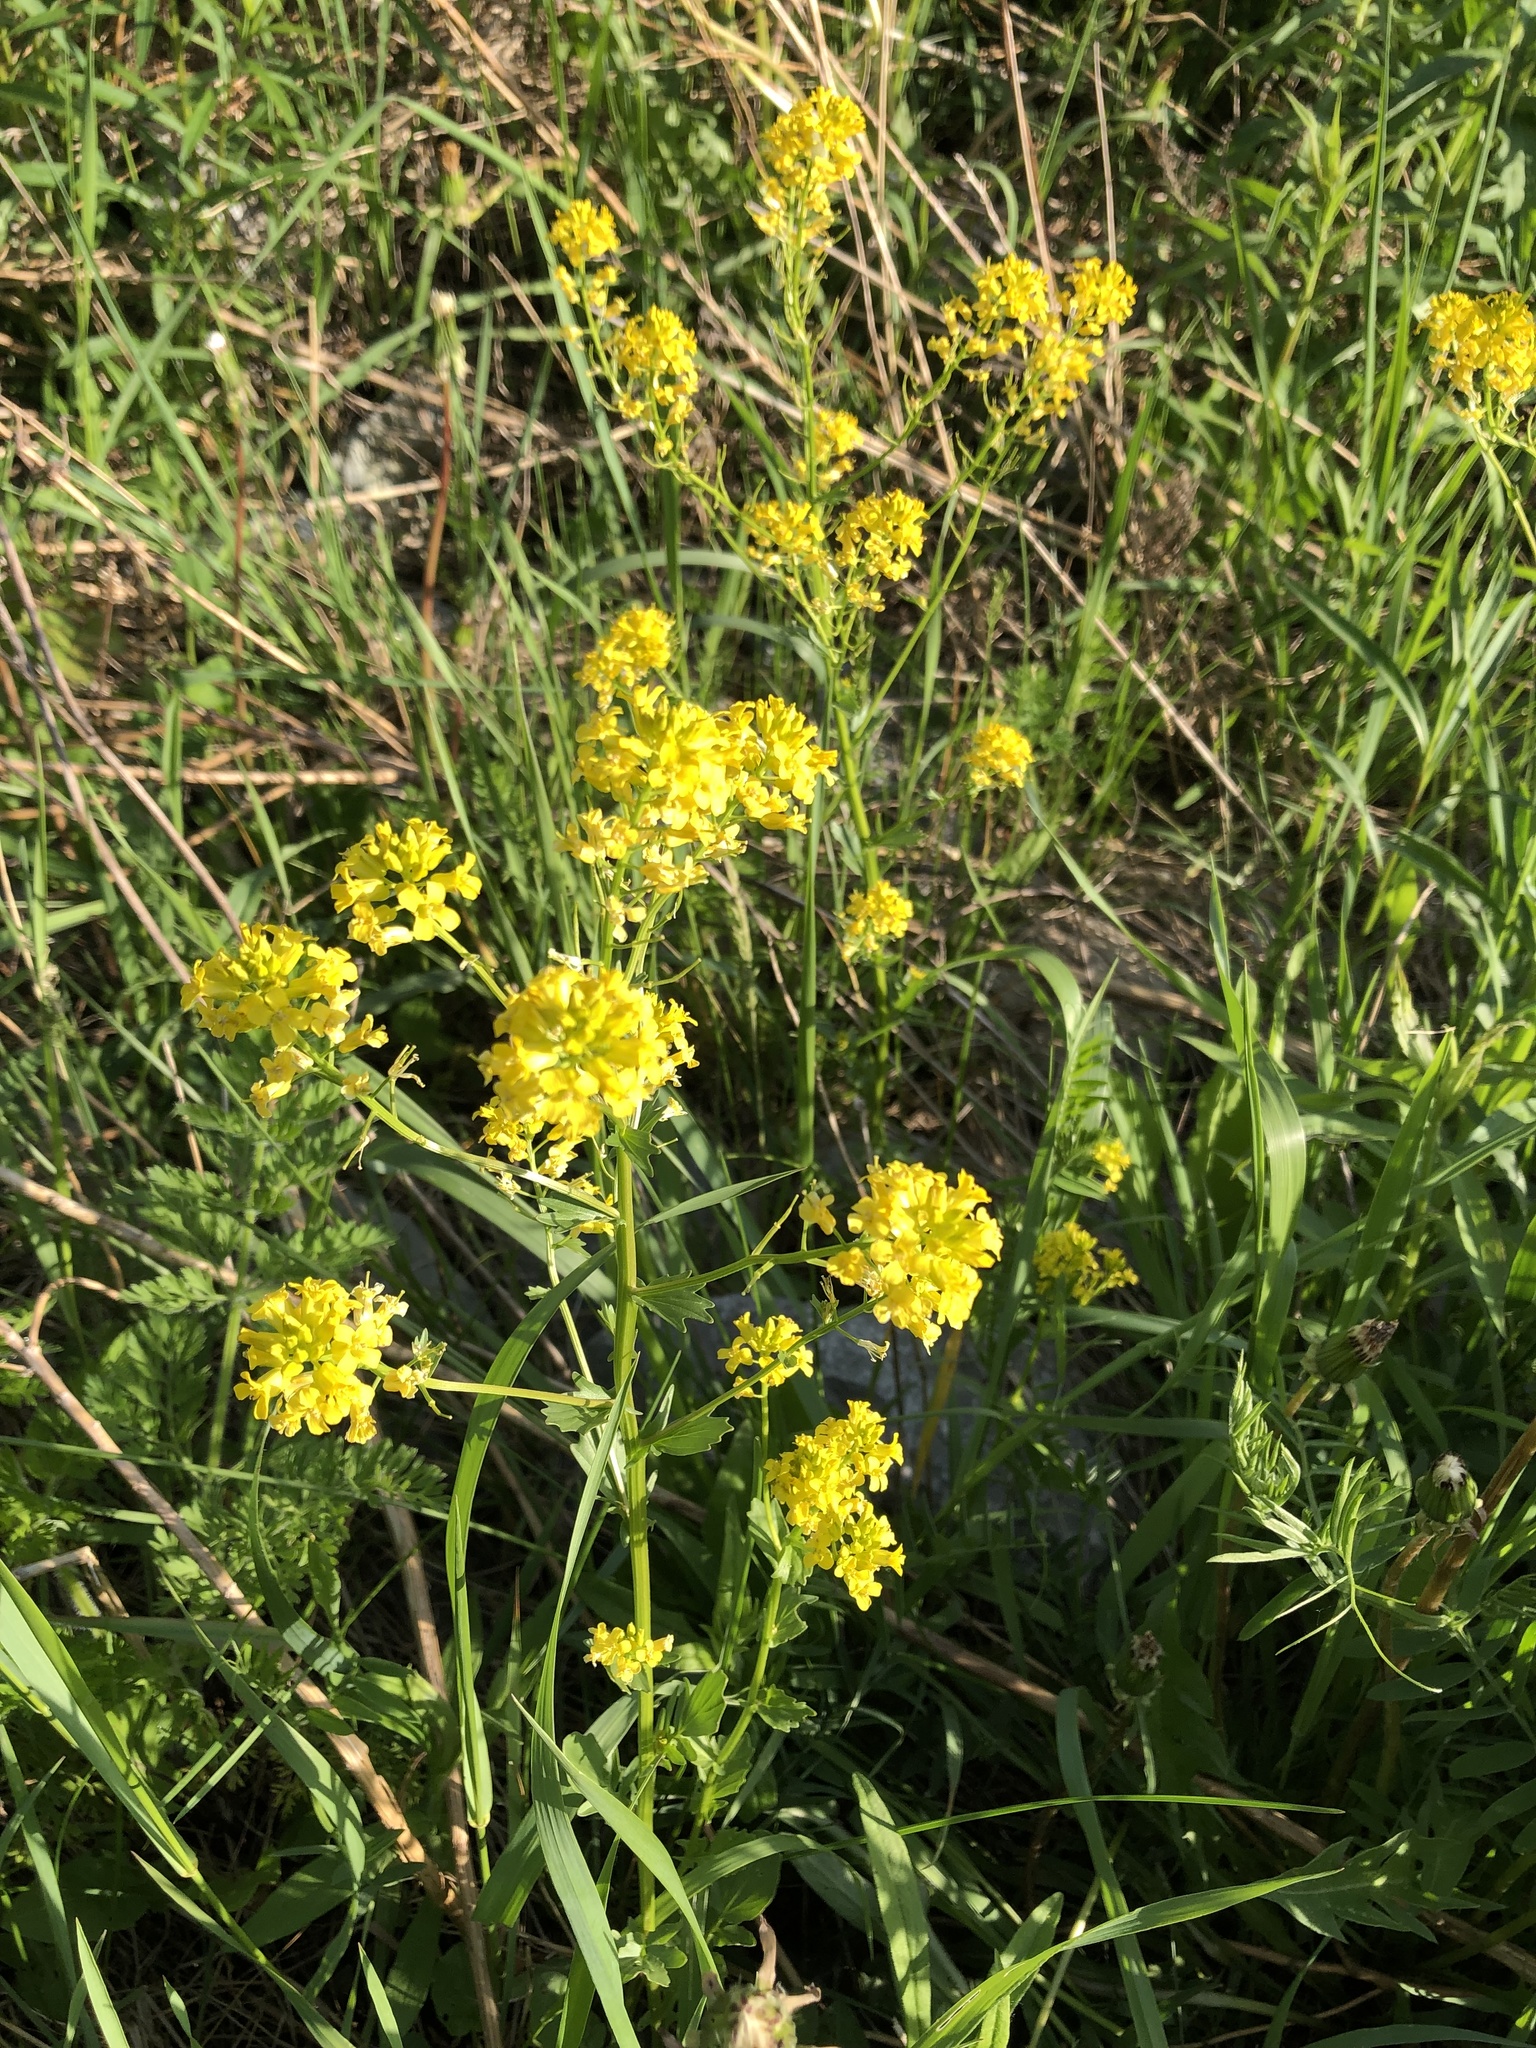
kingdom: Plantae
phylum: Tracheophyta
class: Magnoliopsida
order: Brassicales
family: Brassicaceae
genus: Barbarea
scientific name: Barbarea vulgaris
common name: Cressy-greens
